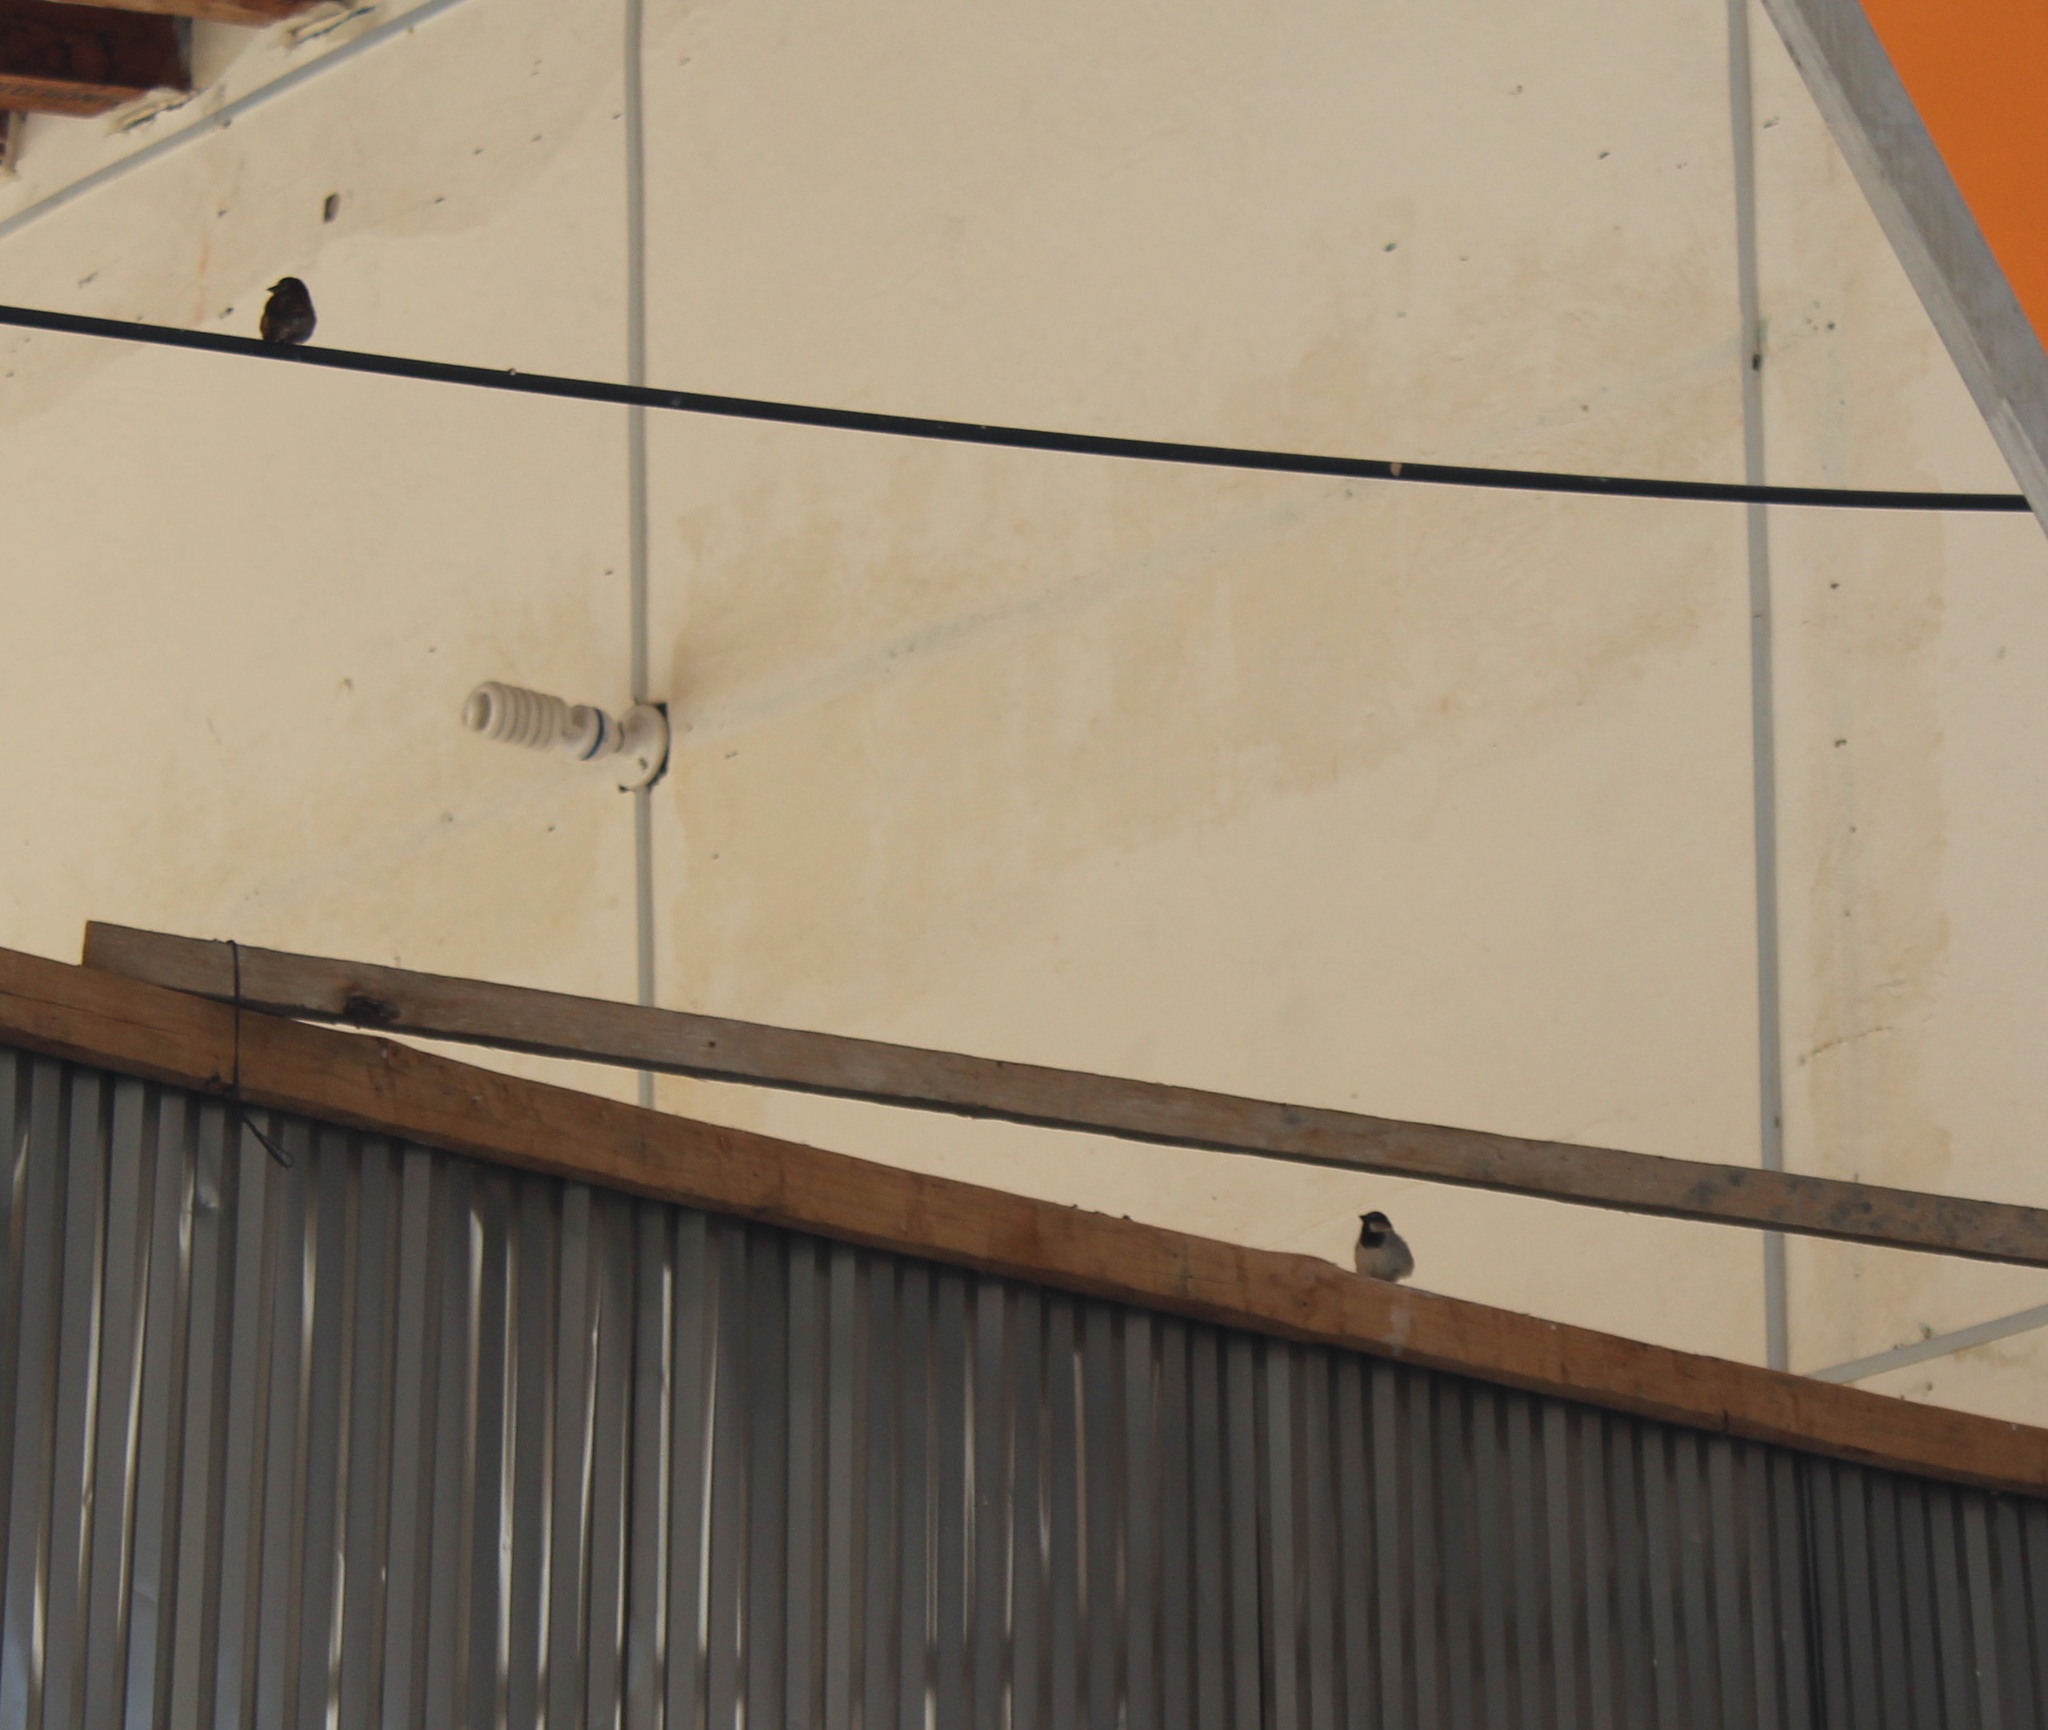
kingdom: Animalia
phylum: Chordata
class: Aves
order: Passeriformes
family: Passeridae
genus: Passer
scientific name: Passer domesticus
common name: House sparrow
